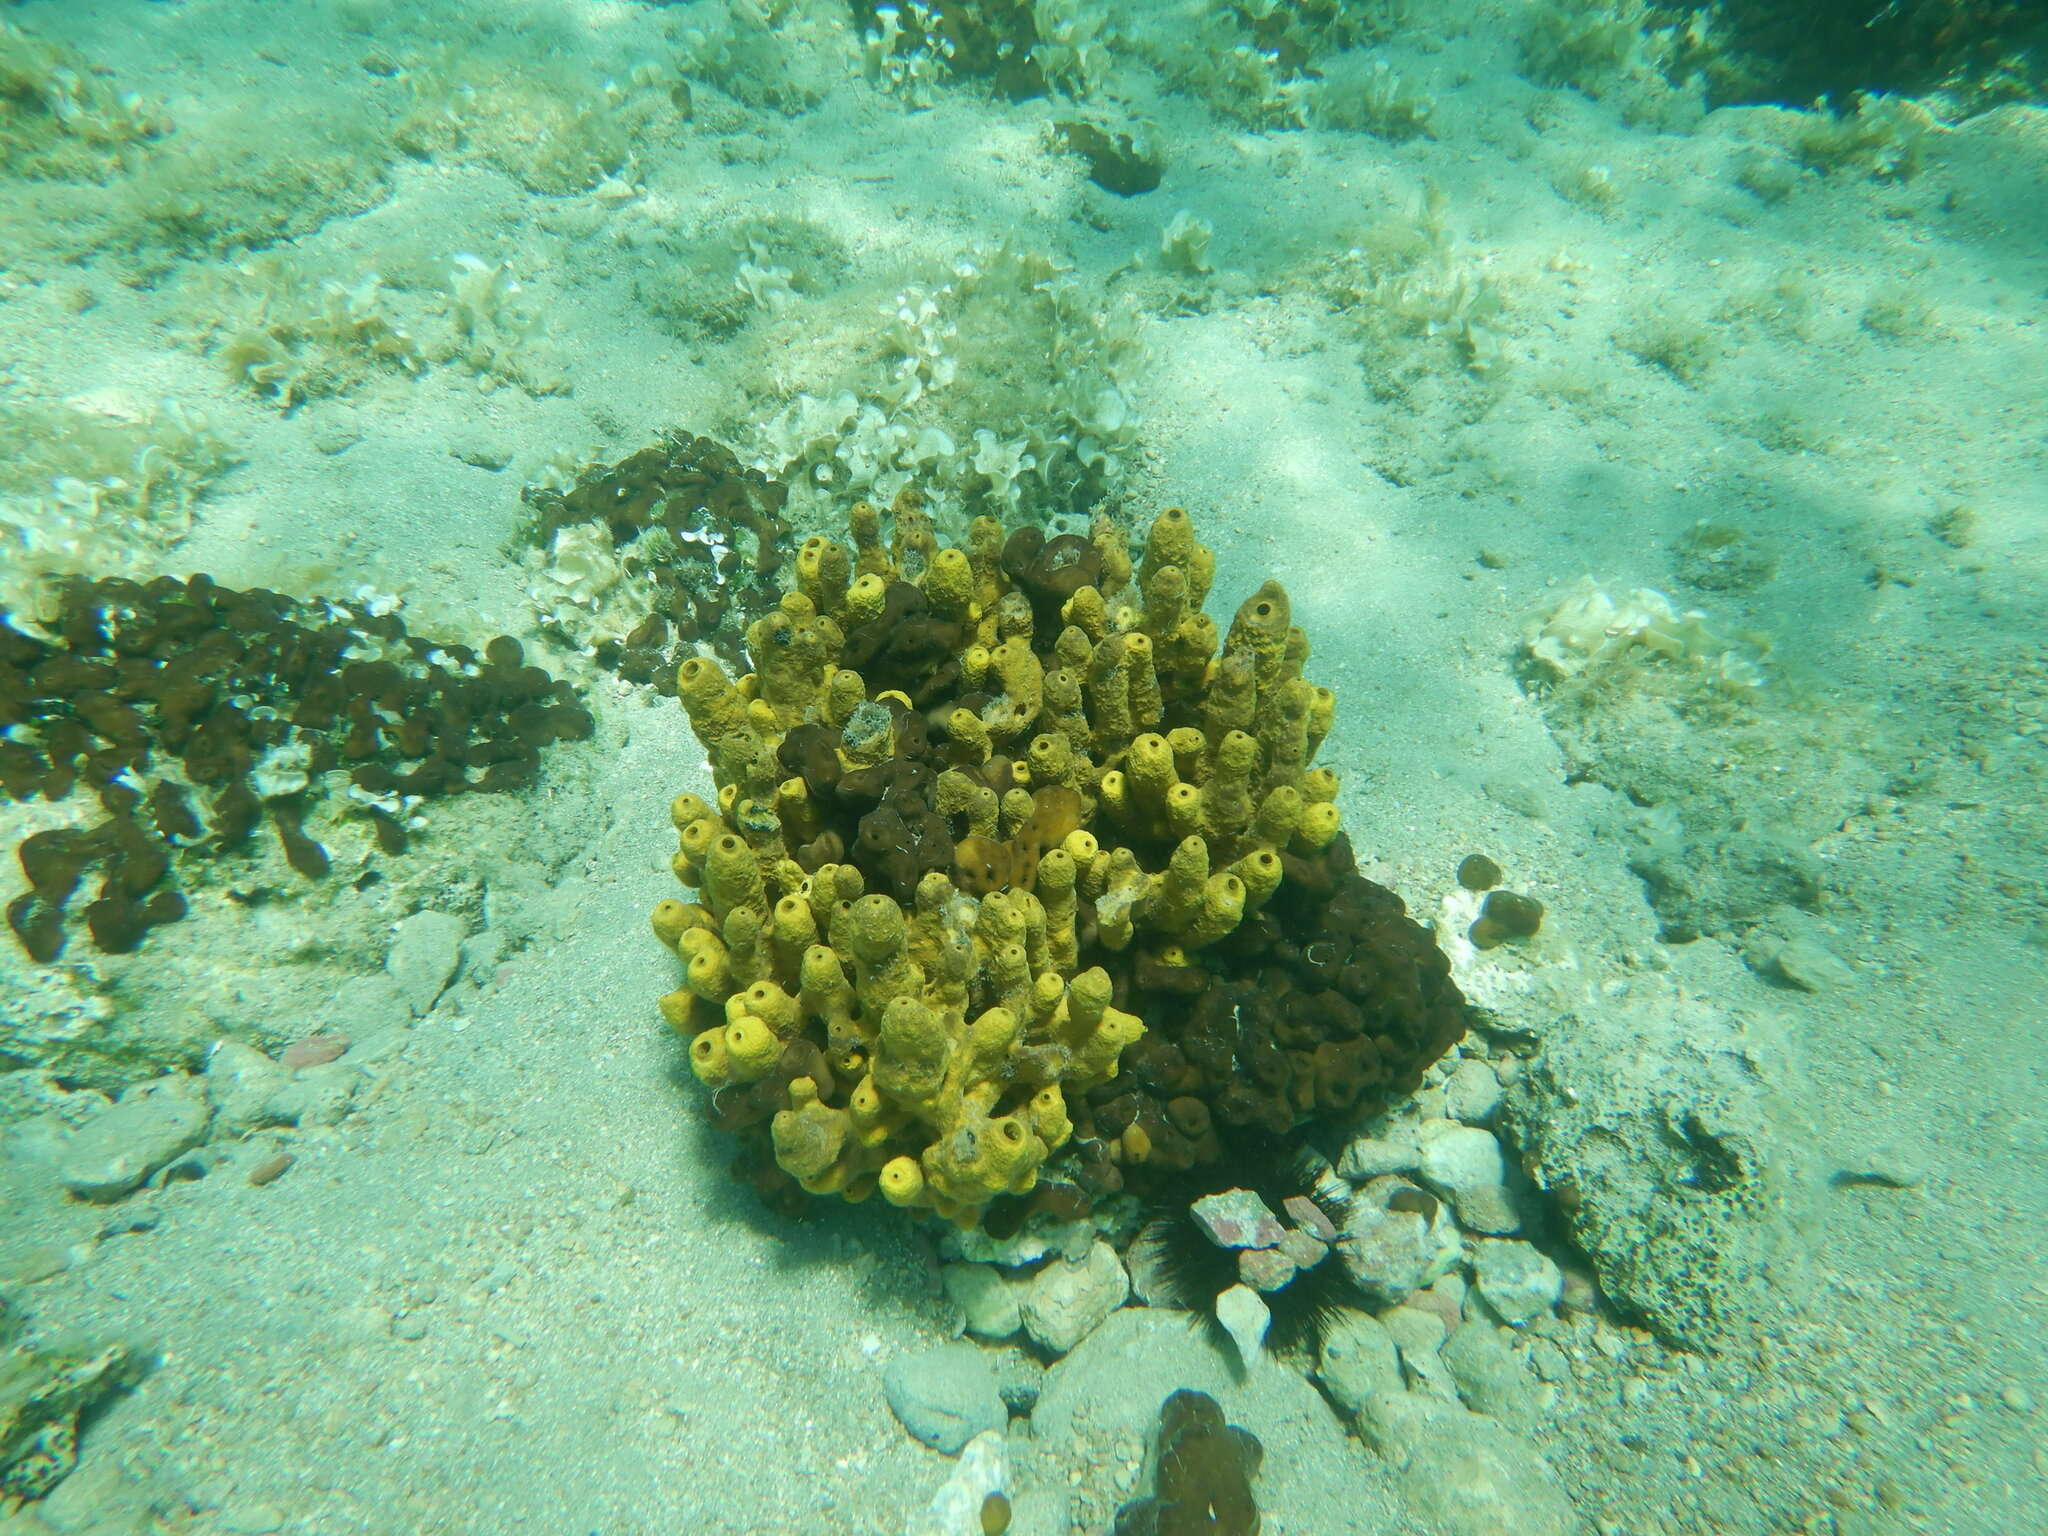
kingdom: Animalia
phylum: Porifera
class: Demospongiae
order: Verongiida
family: Aplysinidae
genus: Aplysina
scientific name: Aplysina aerophoba
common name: Aureate sponge
